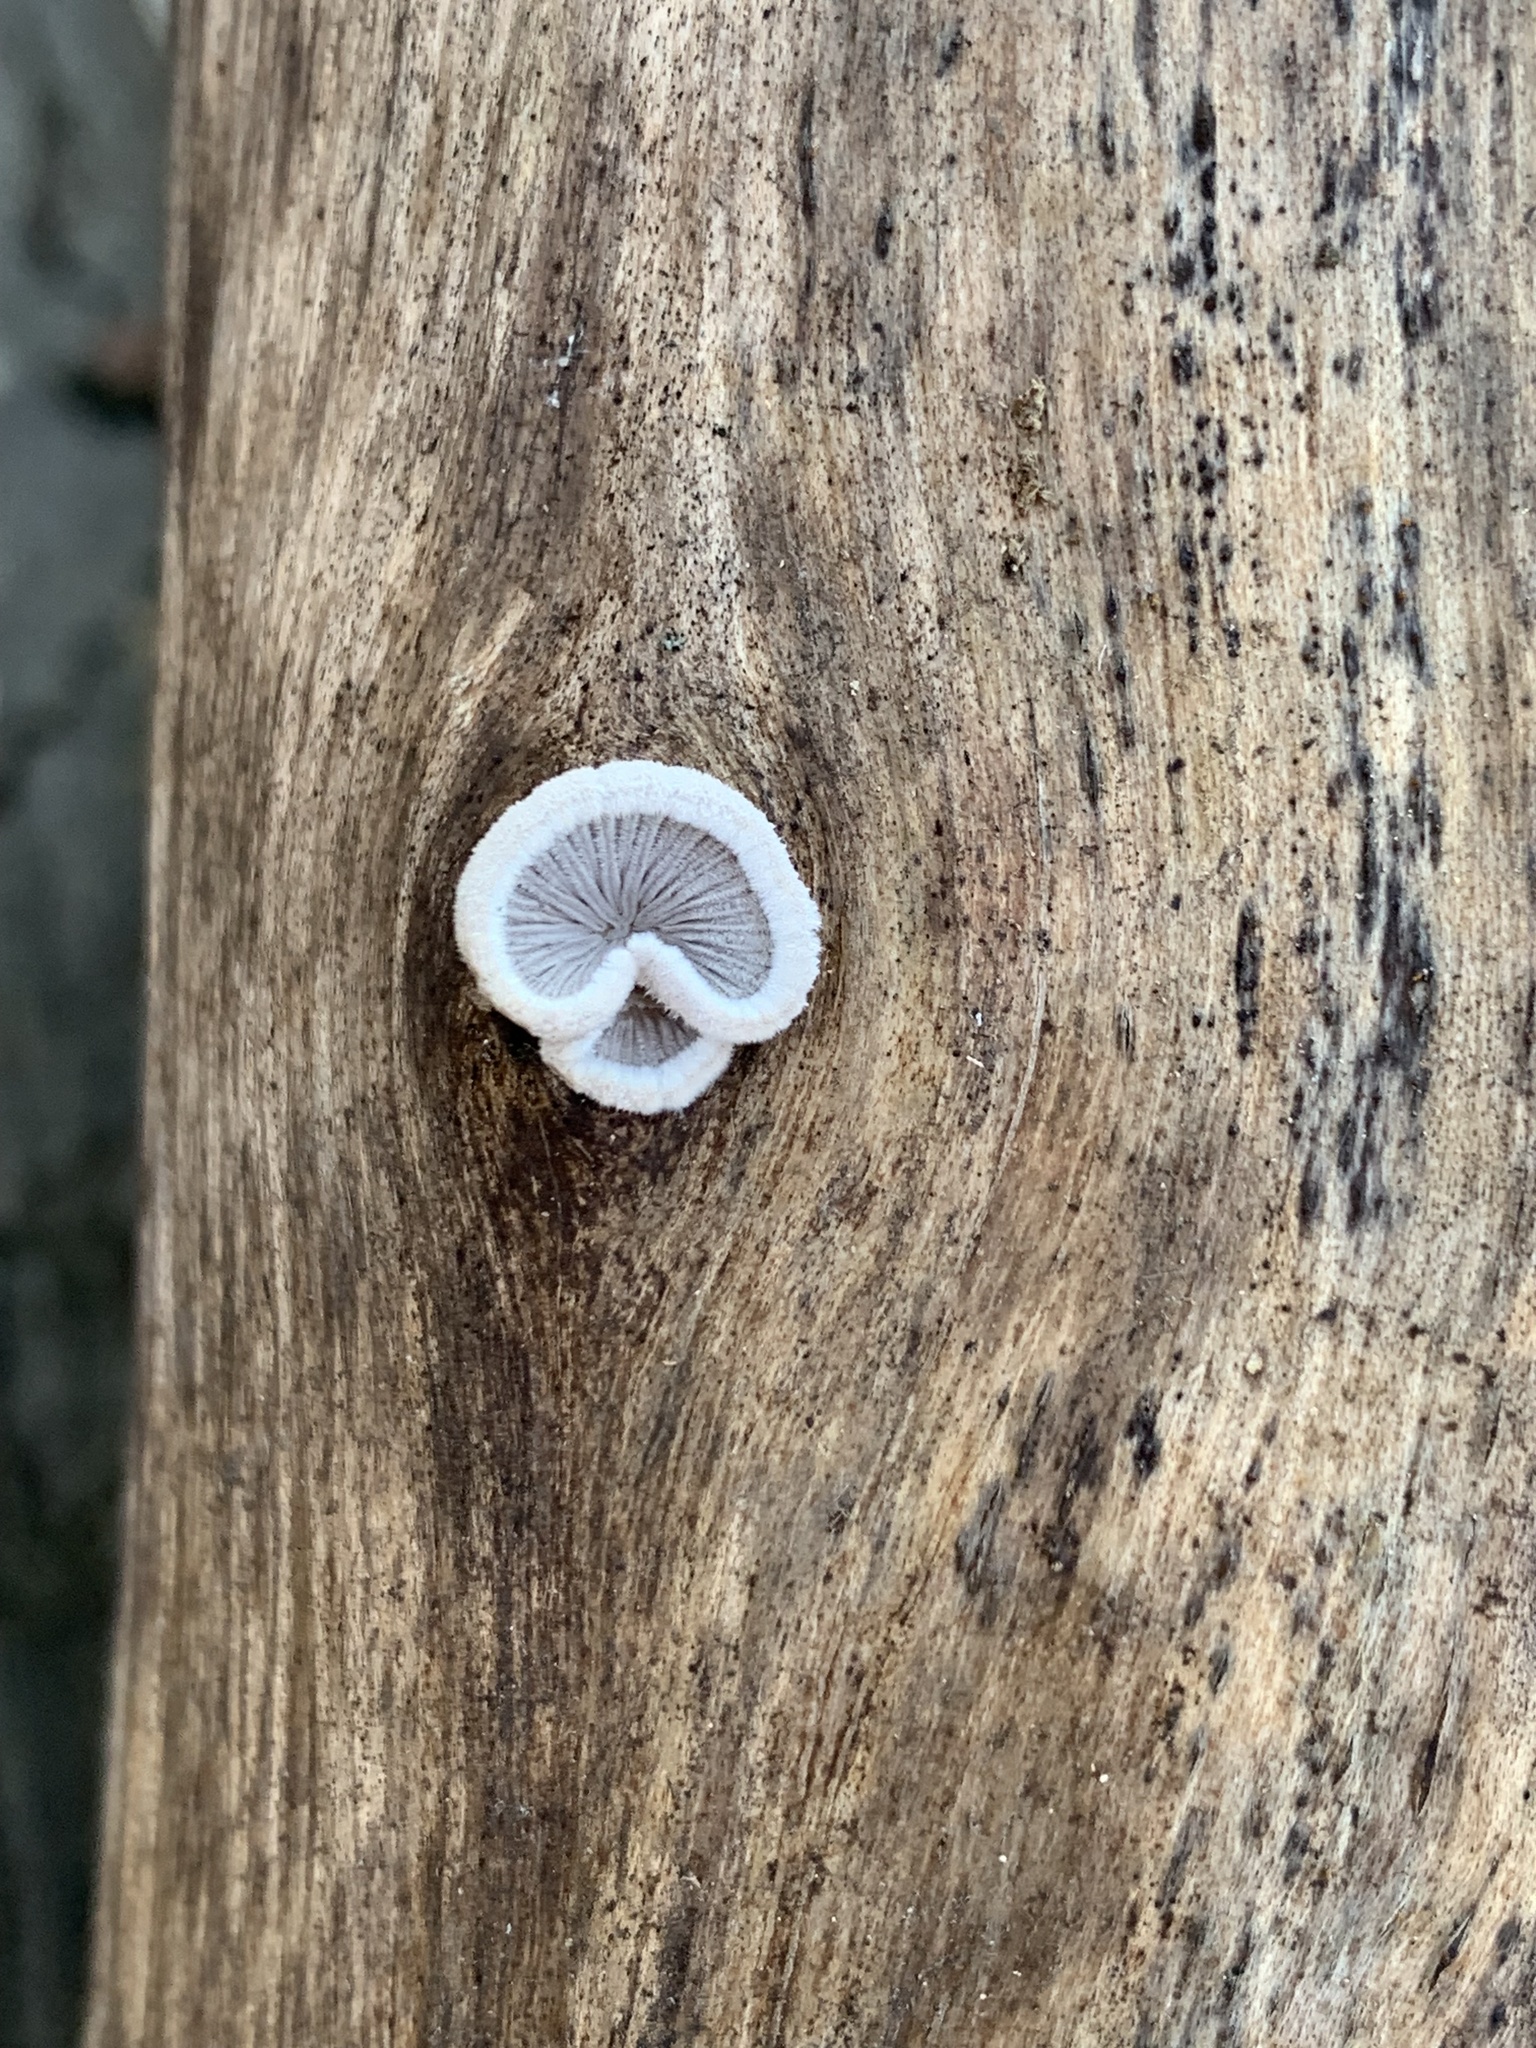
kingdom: Fungi
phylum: Basidiomycota
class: Agaricomycetes
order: Agaricales
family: Schizophyllaceae
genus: Schizophyllum
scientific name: Schizophyllum commune
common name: Common porecrust
